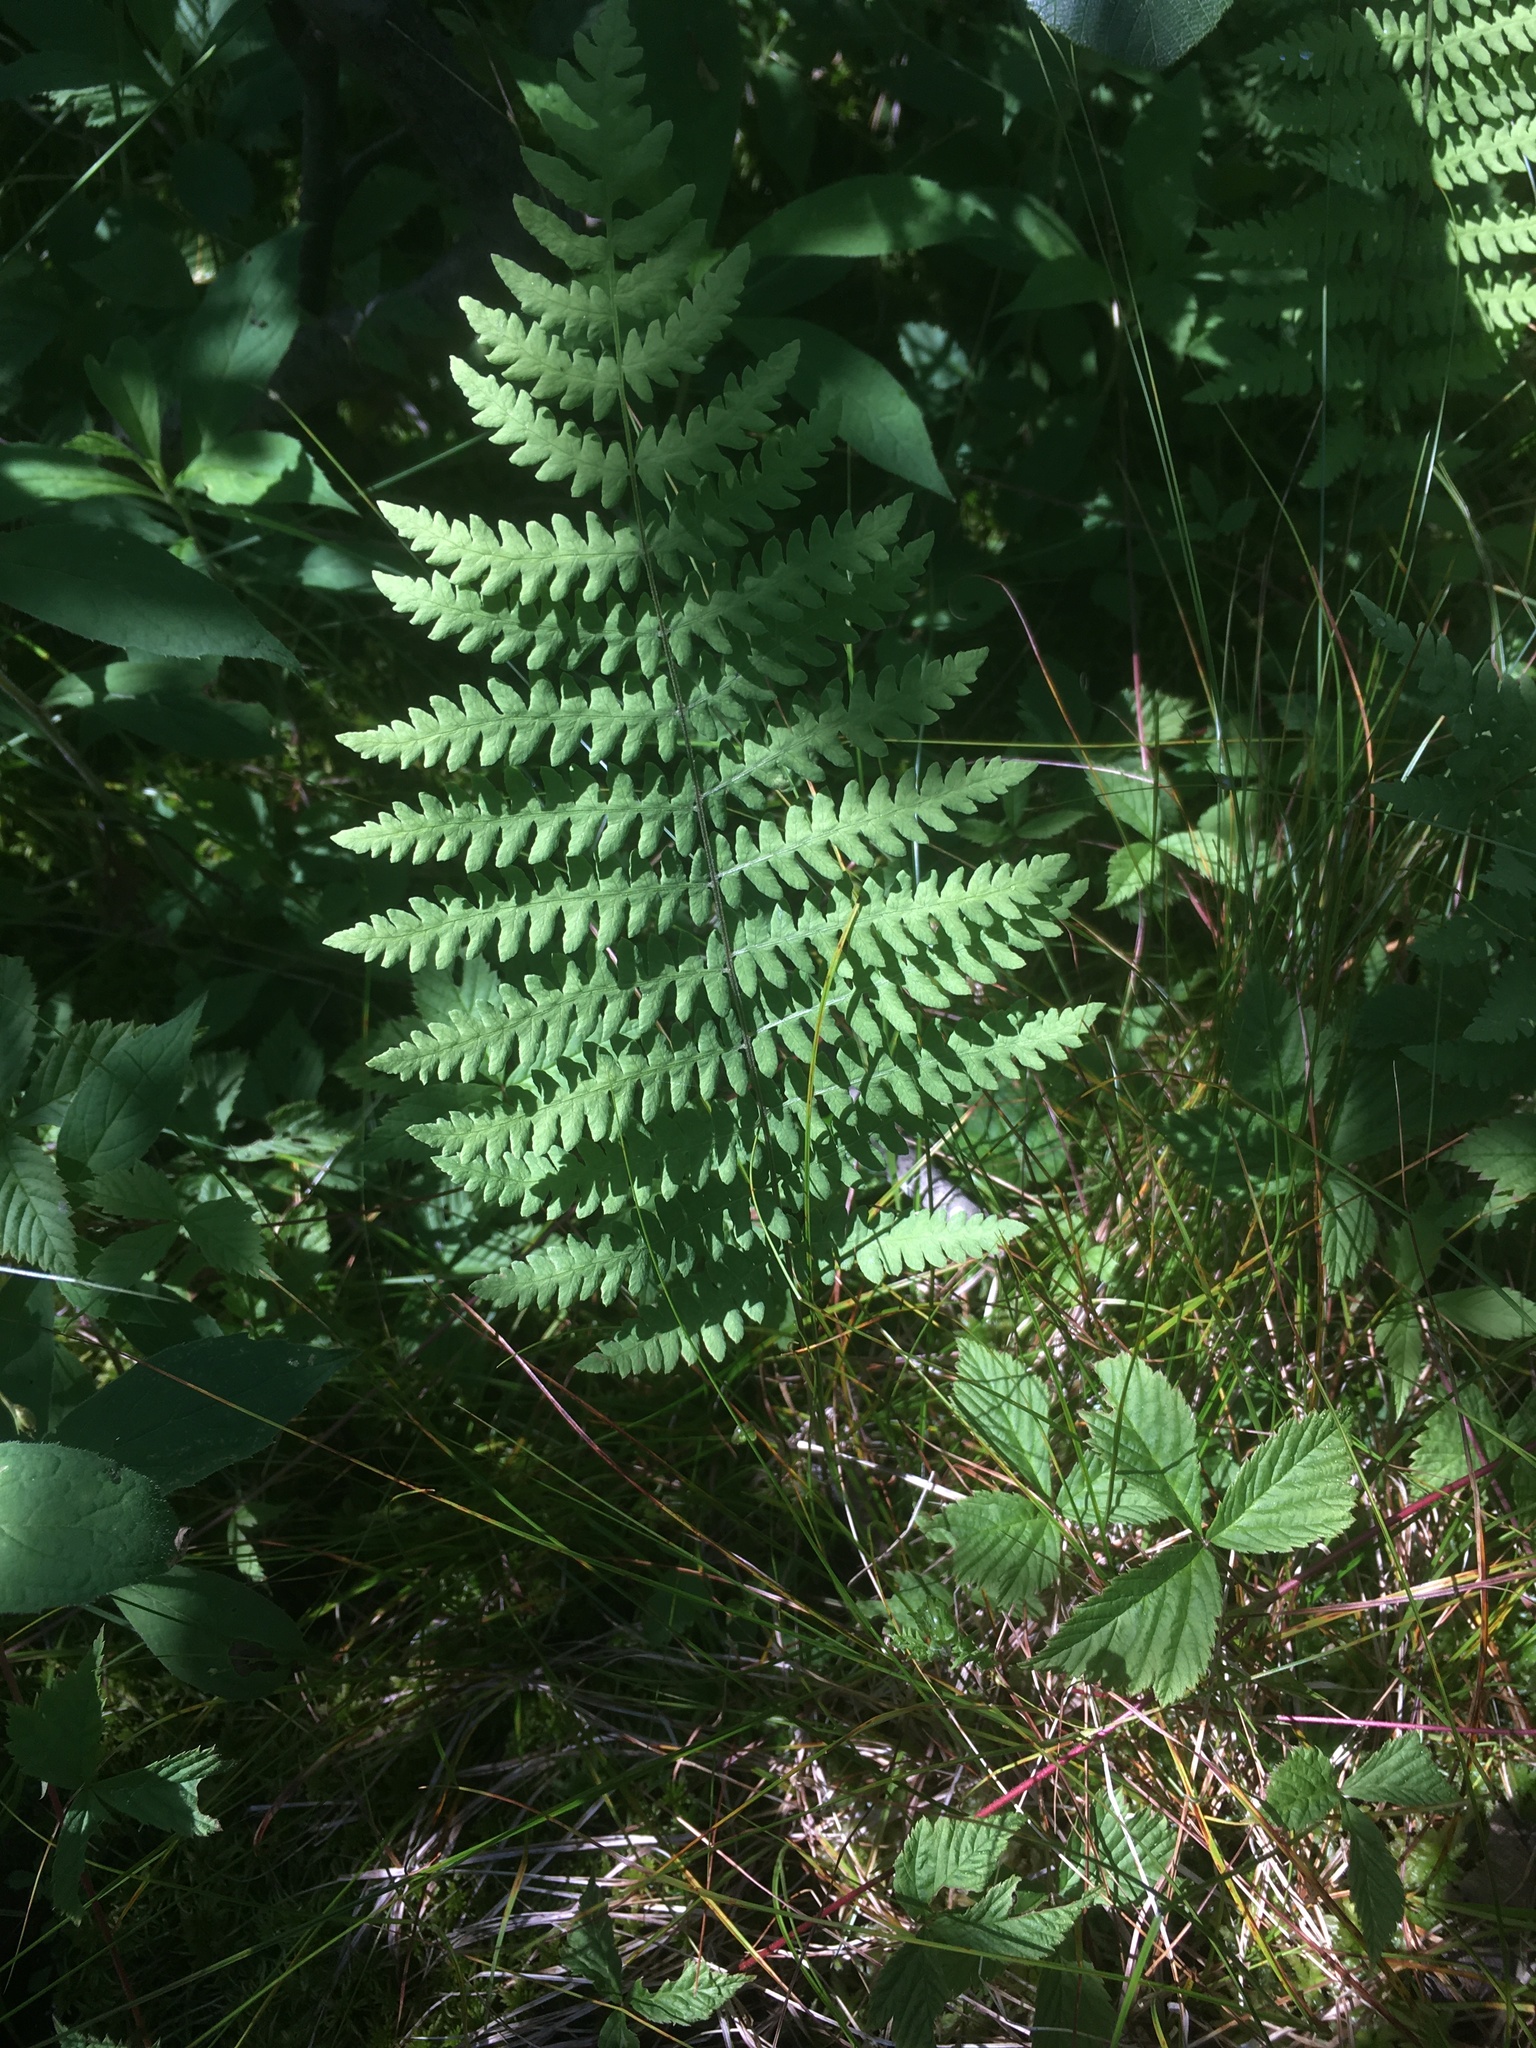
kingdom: Plantae
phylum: Tracheophyta
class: Polypodiopsida
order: Polypodiales
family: Thelypteridaceae
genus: Thelypteris
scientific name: Thelypteris palustris
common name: Marsh fern
